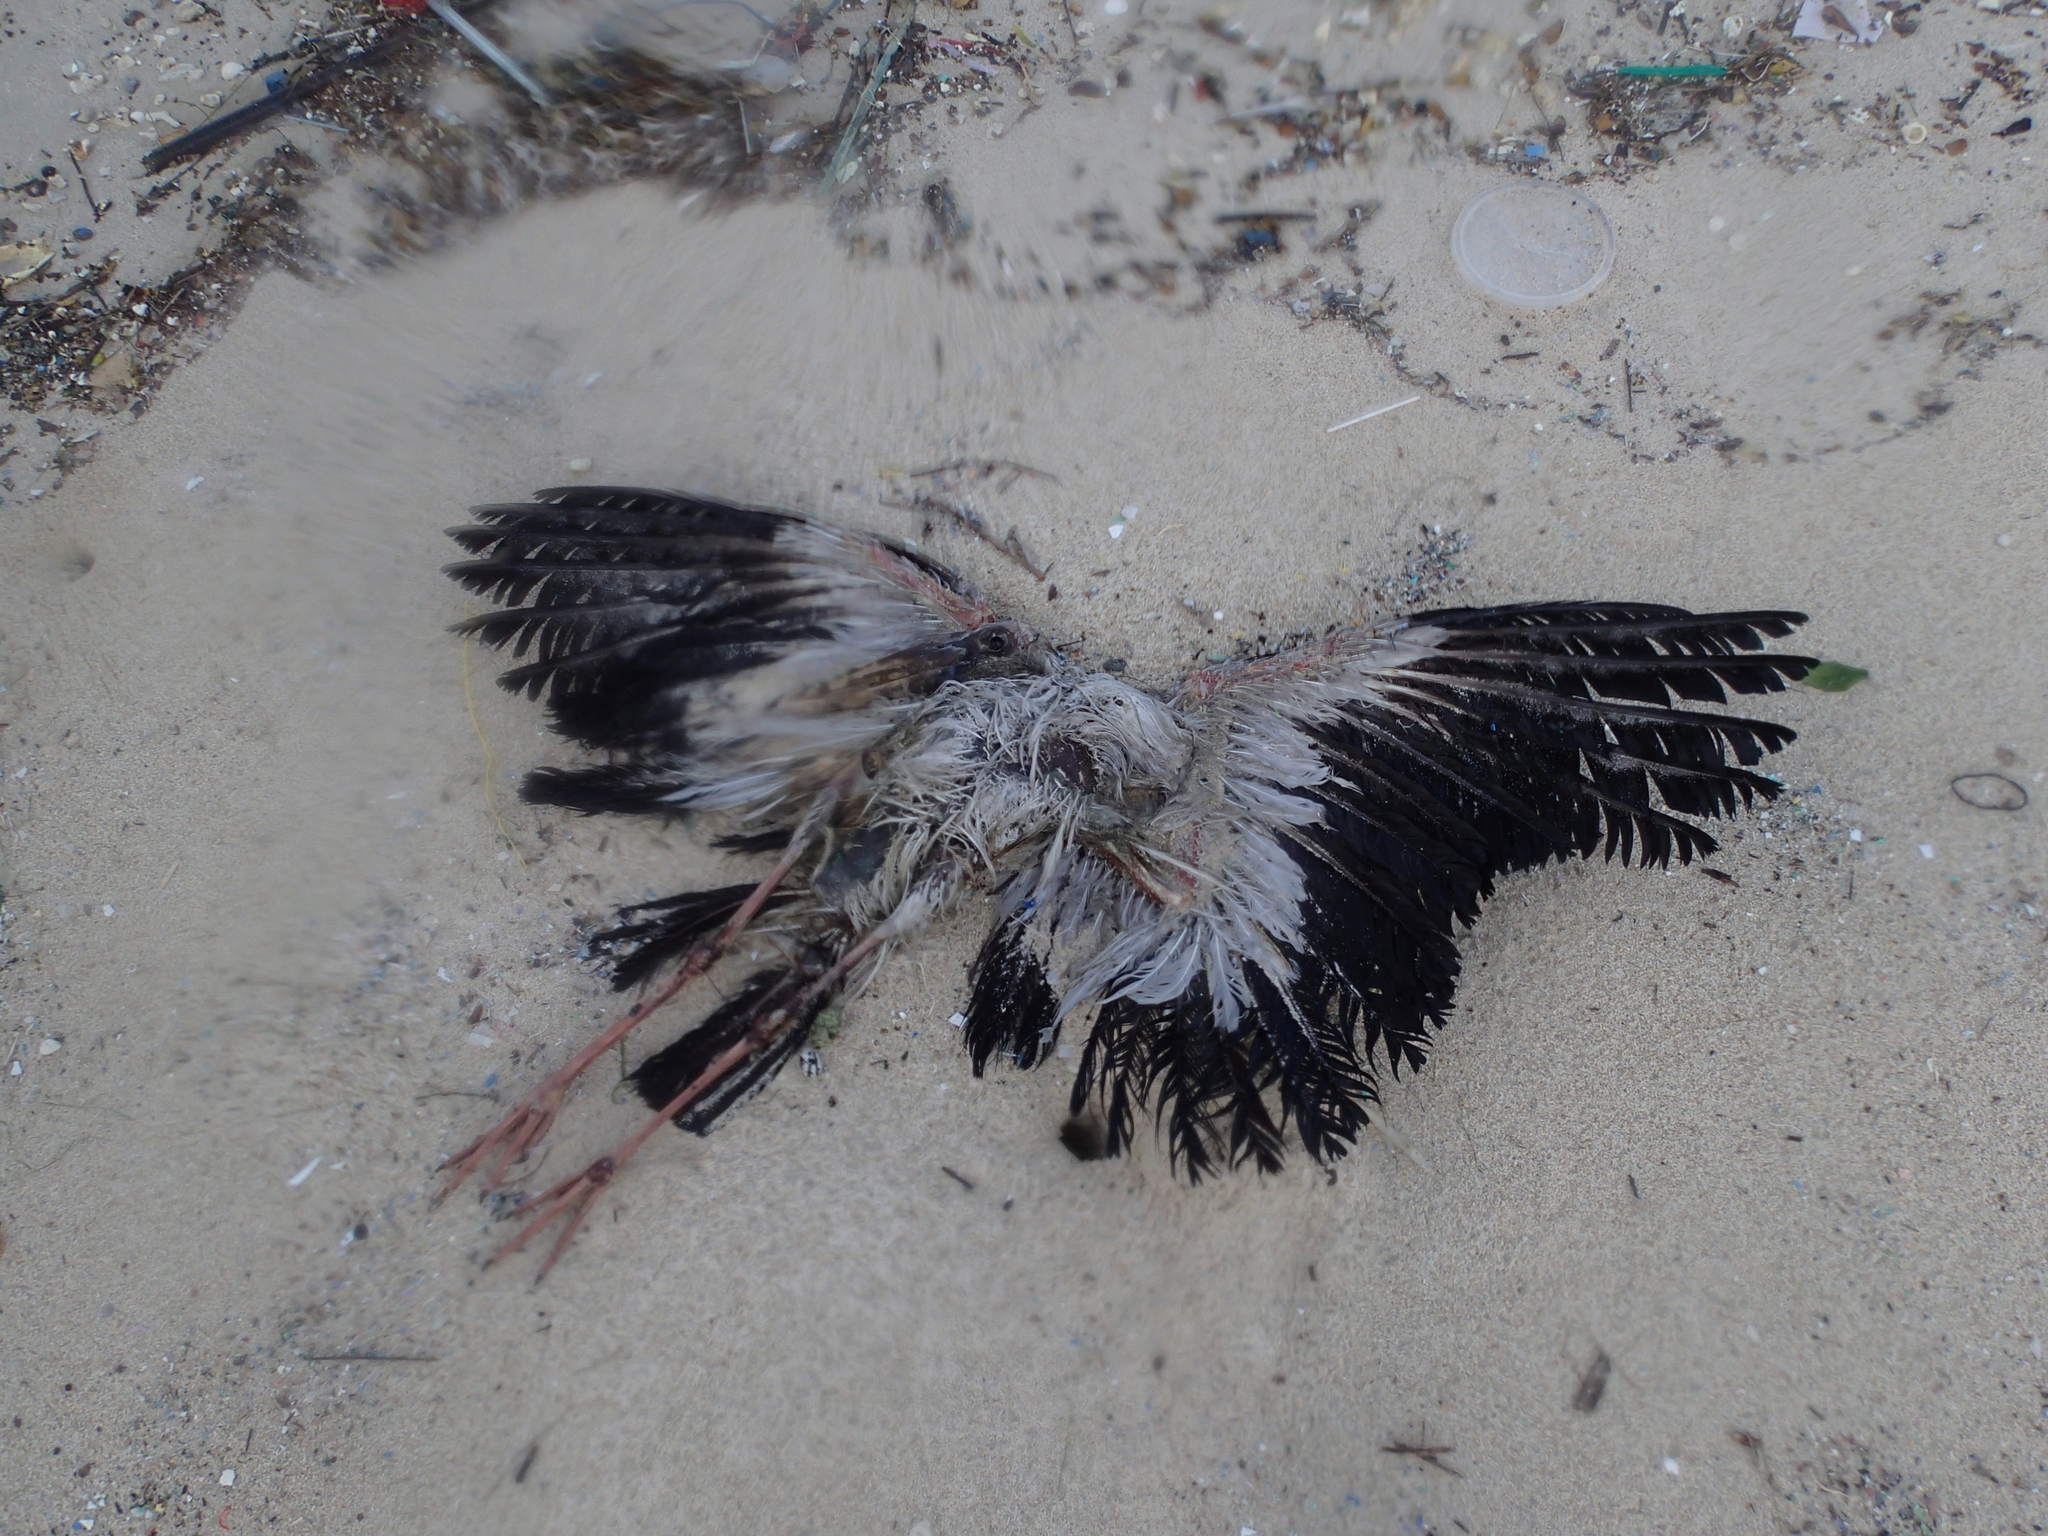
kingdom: Animalia
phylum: Chordata
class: Aves
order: Ciconiiformes
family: Ciconiidae
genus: Anastomus
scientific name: Anastomus oscitans
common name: Asian openbill
